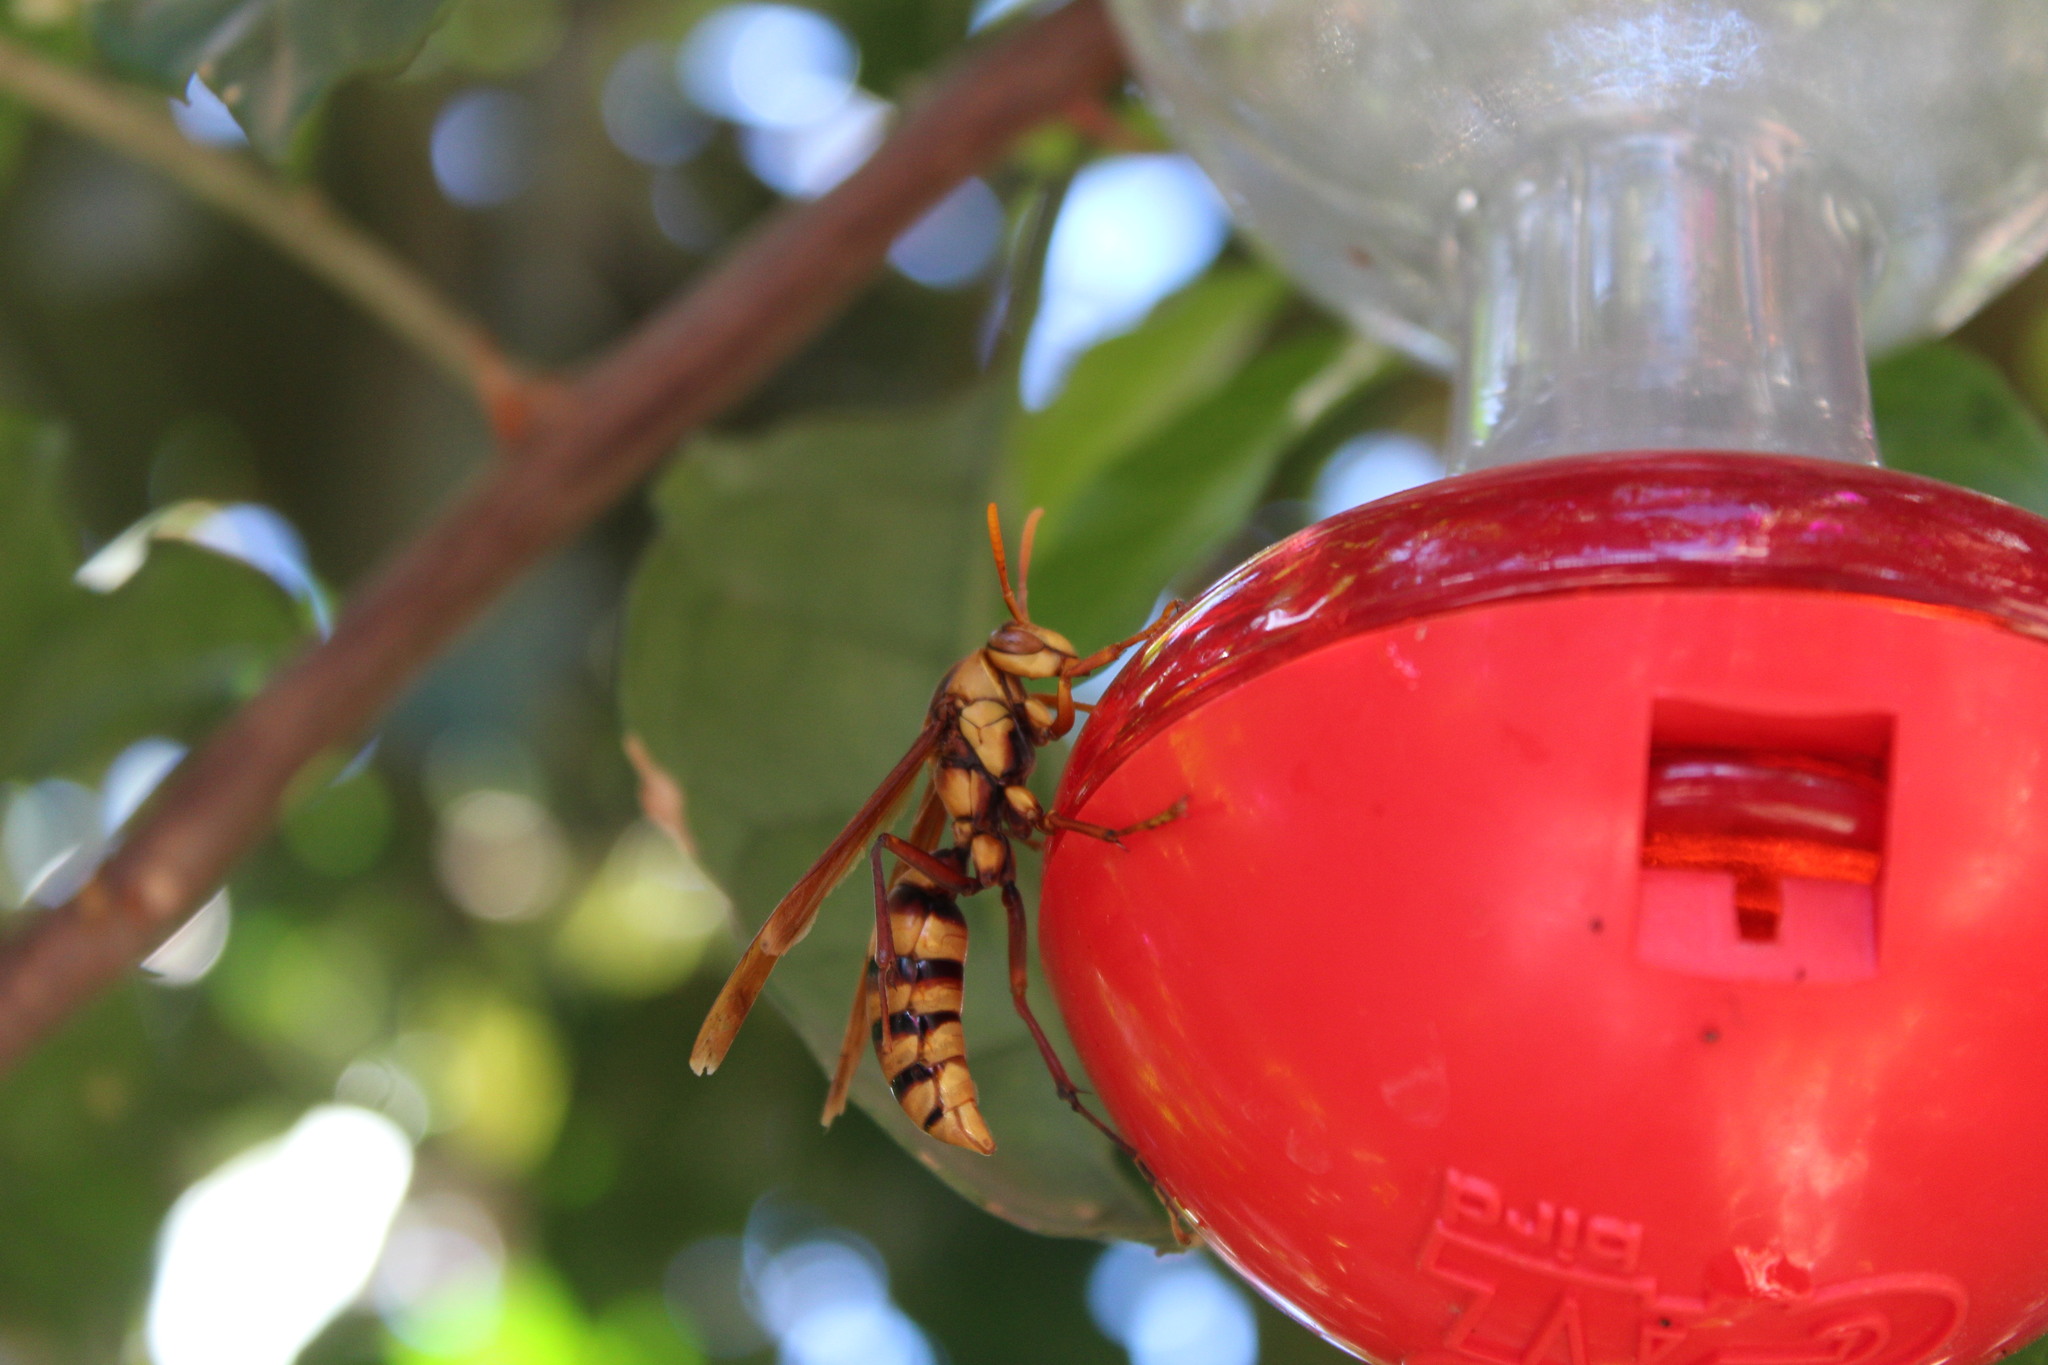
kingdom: Animalia
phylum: Arthropoda
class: Insecta
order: Hymenoptera
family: Eumenidae
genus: Polistes
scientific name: Polistes carnifex
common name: Paper wasp
